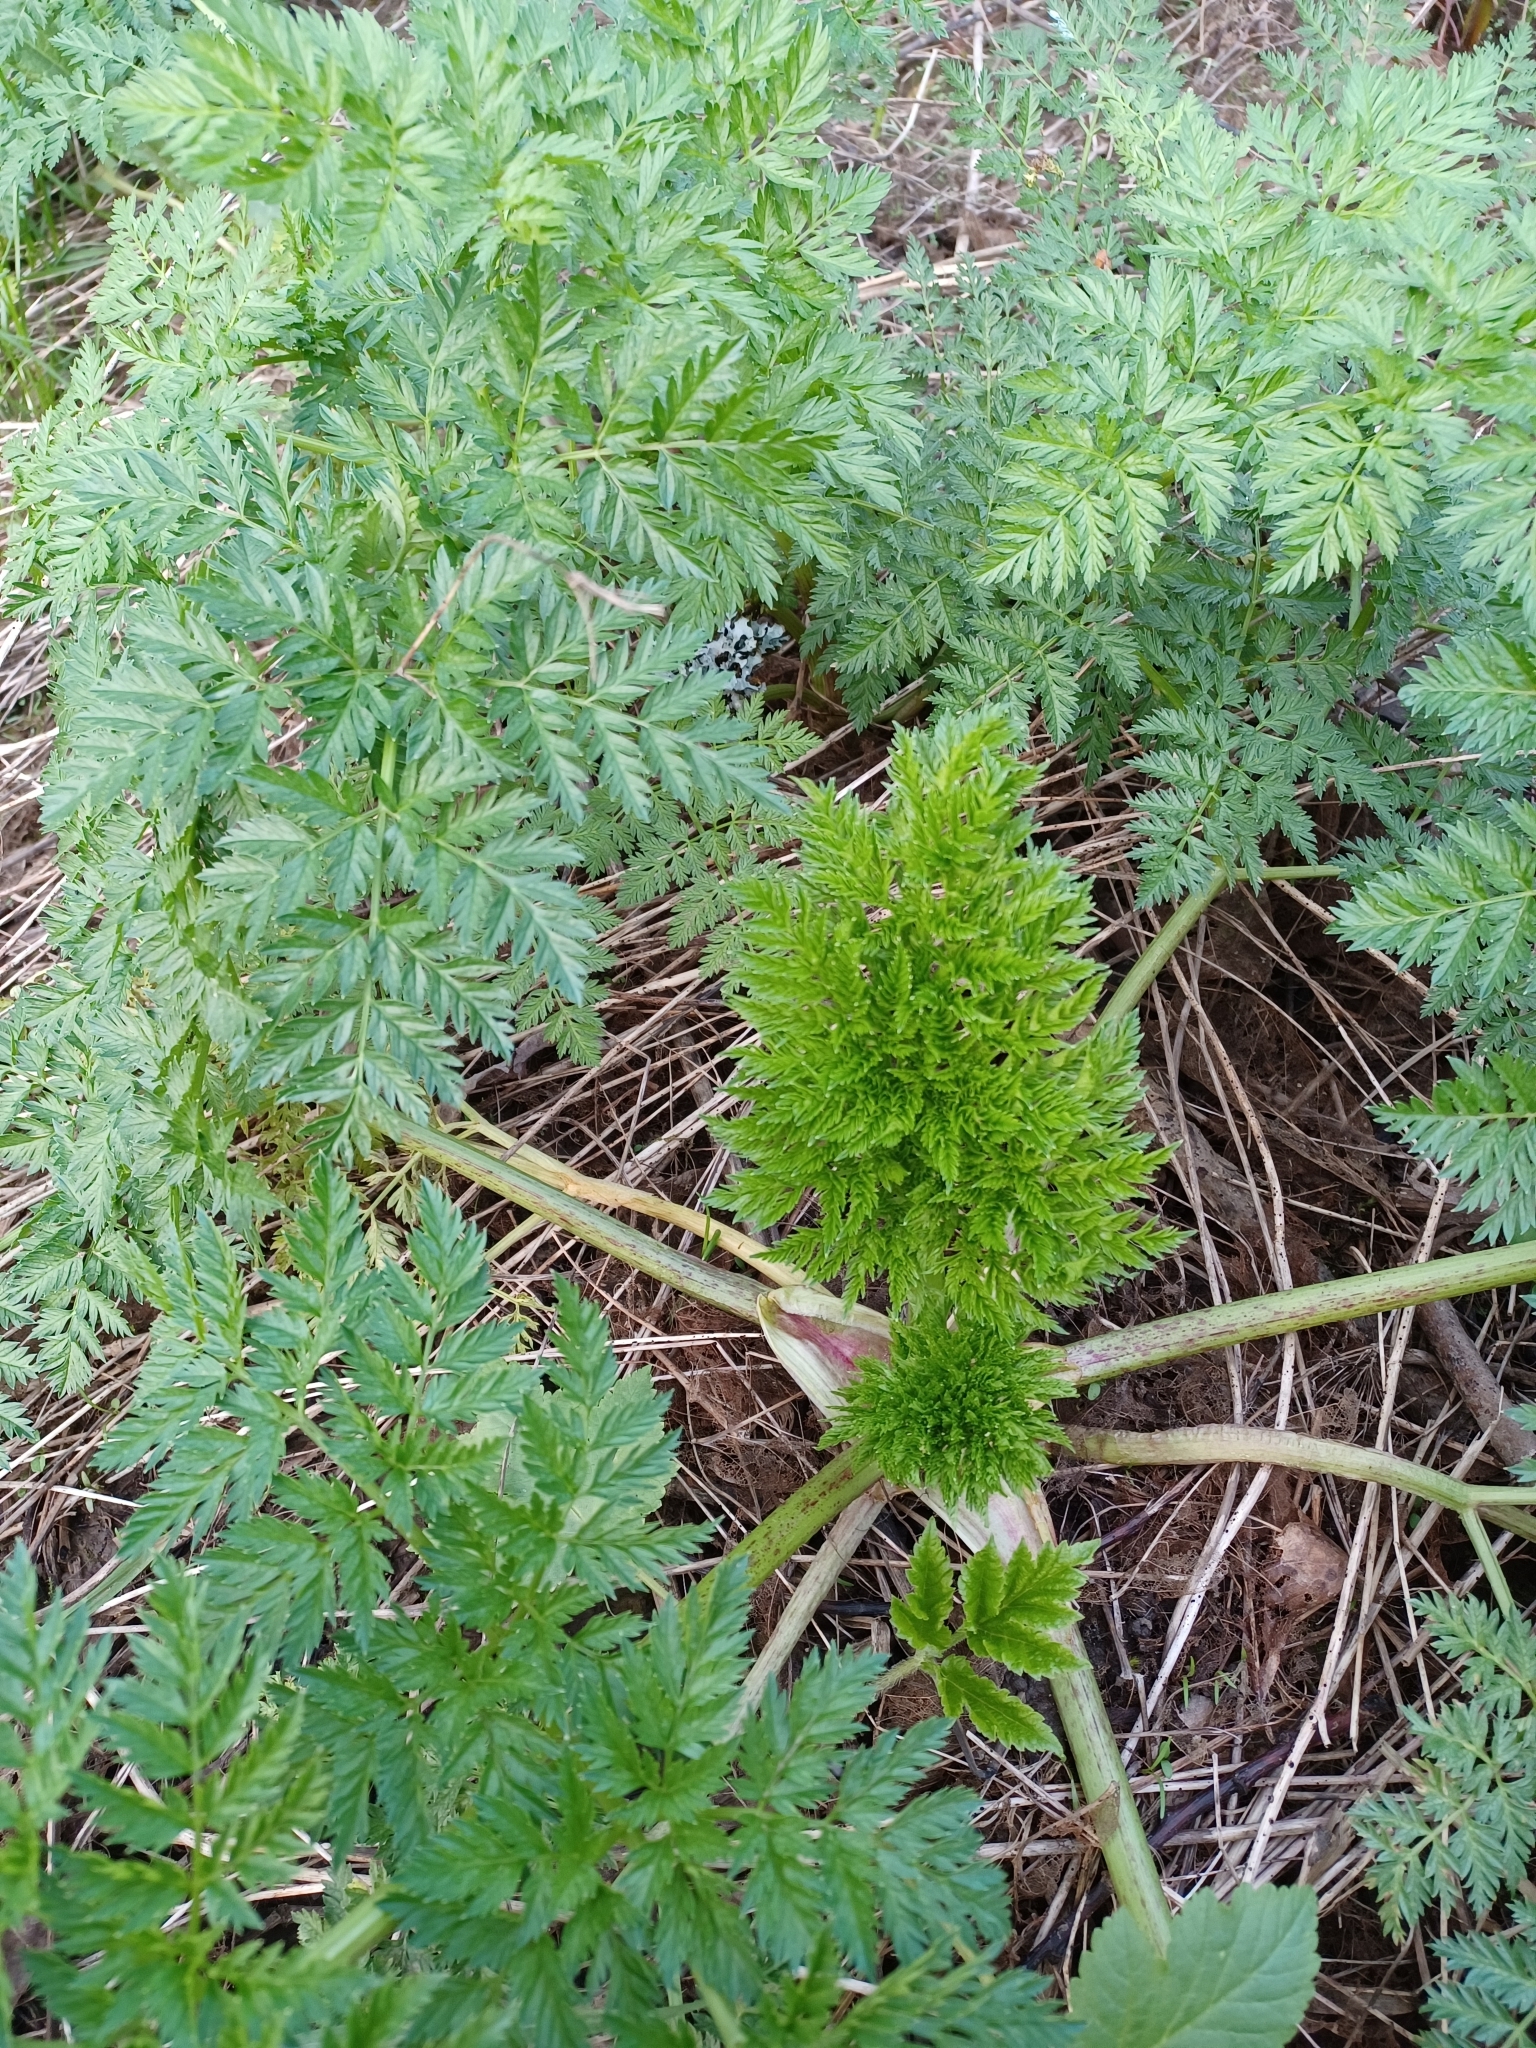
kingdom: Plantae
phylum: Tracheophyta
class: Magnoliopsida
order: Apiales
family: Apiaceae
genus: Conium
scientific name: Conium maculatum
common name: Hemlock
